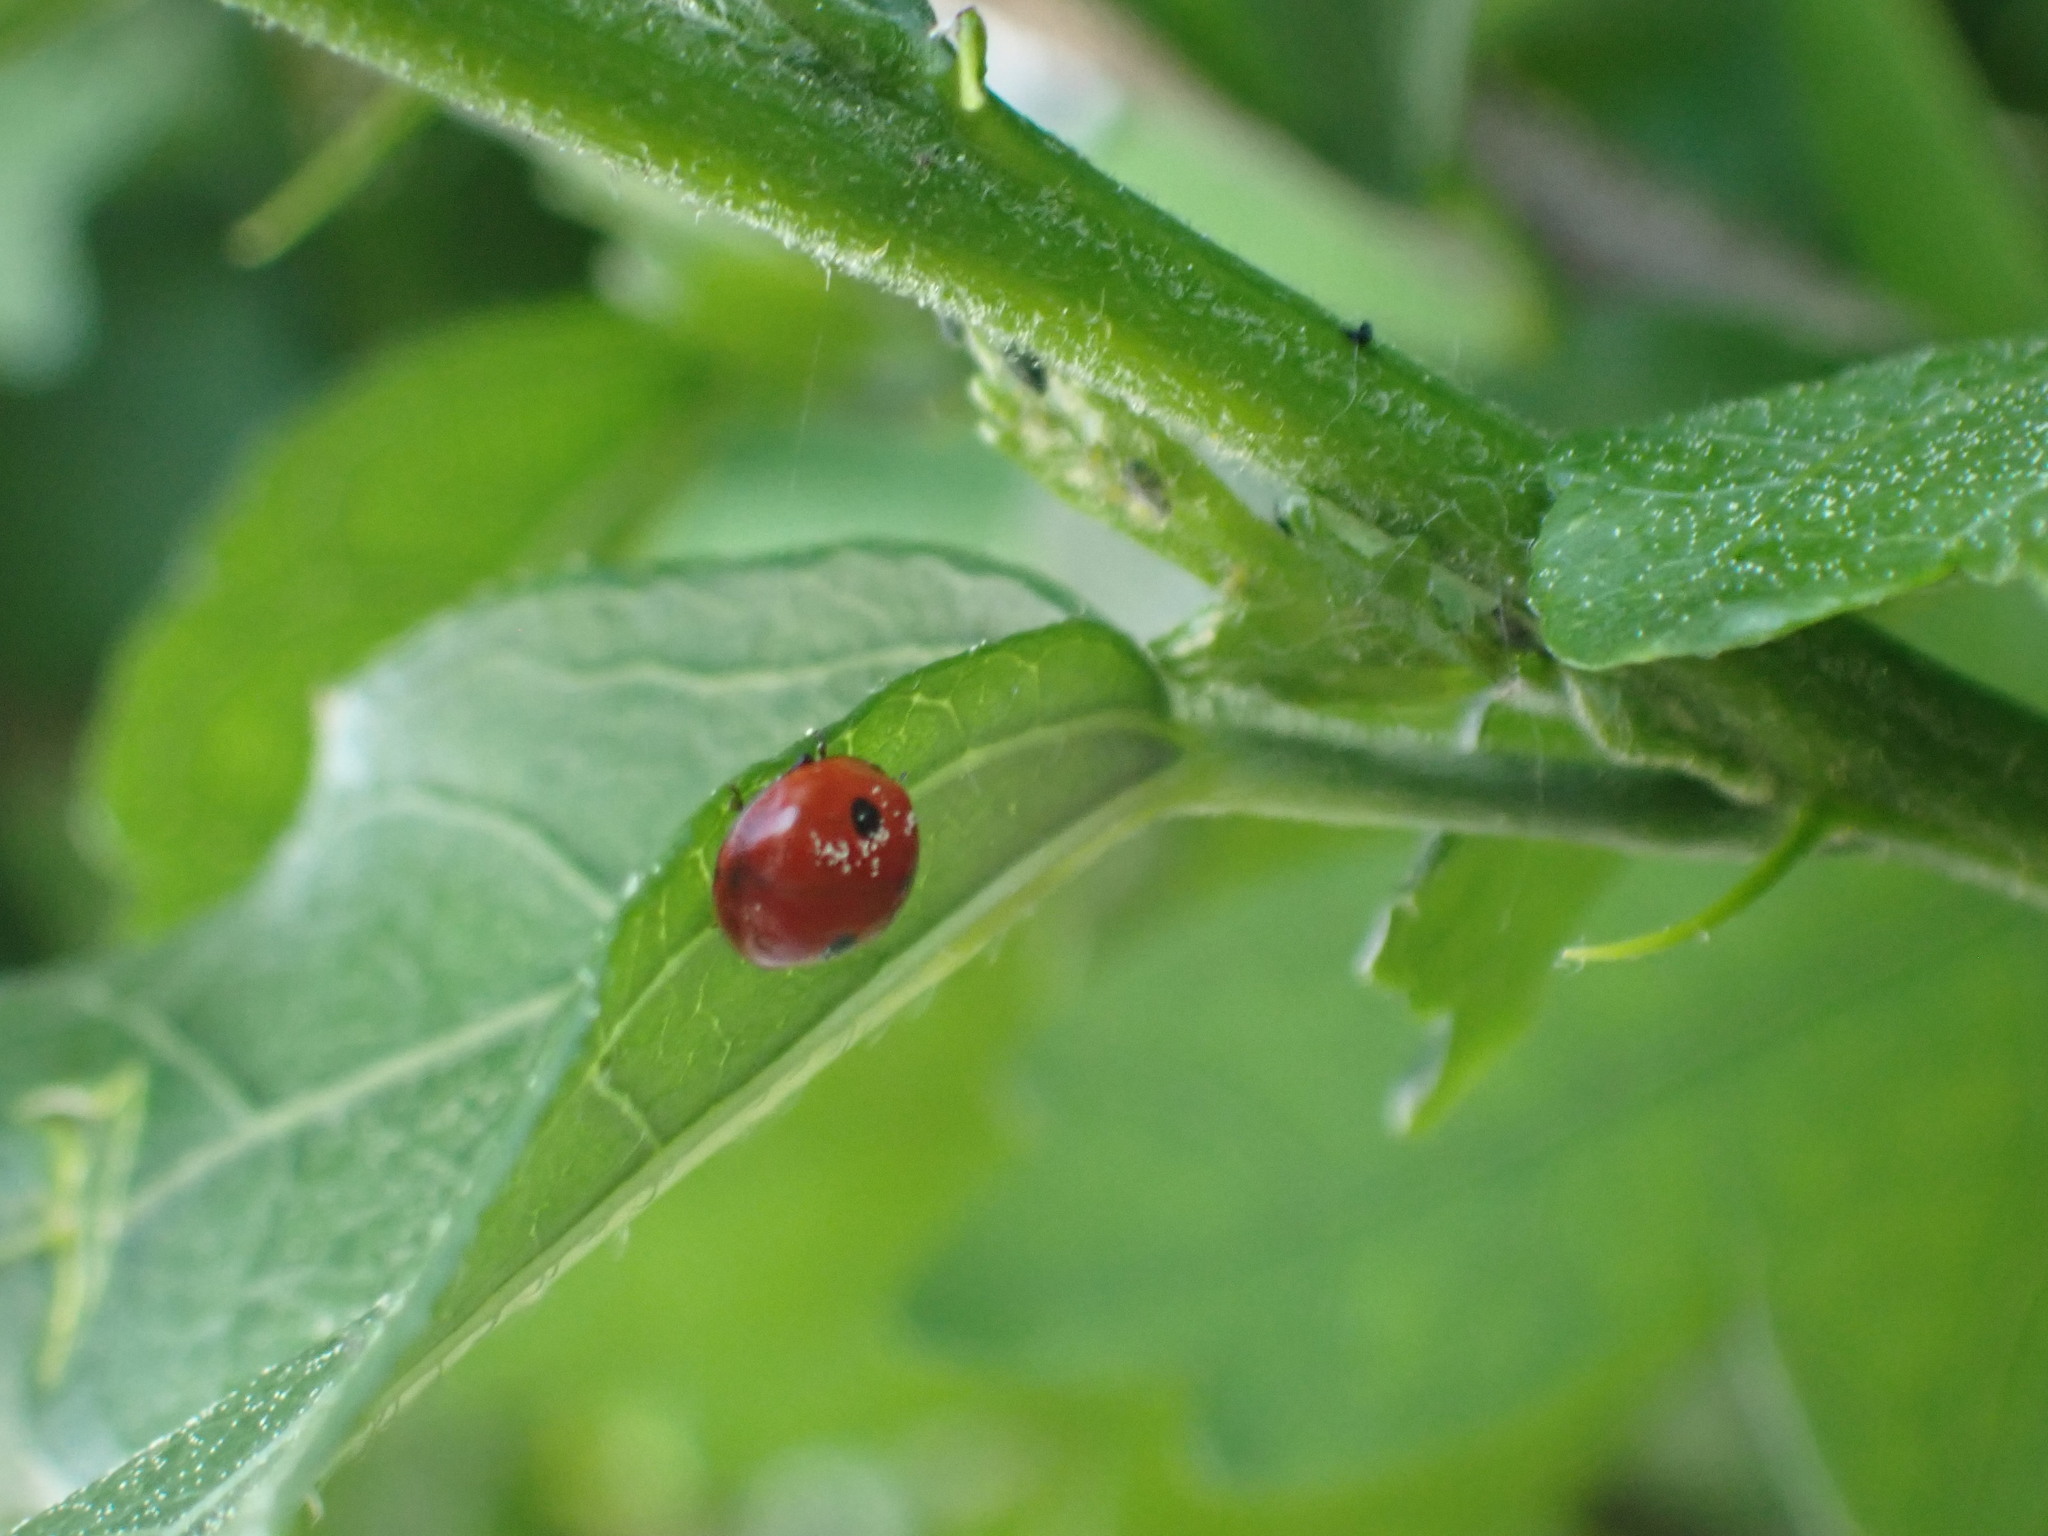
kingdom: Animalia
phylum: Arthropoda
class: Insecta
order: Coleoptera
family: Coccinellidae
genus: Adalia
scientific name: Adalia bipunctata
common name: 2-spot ladybird
